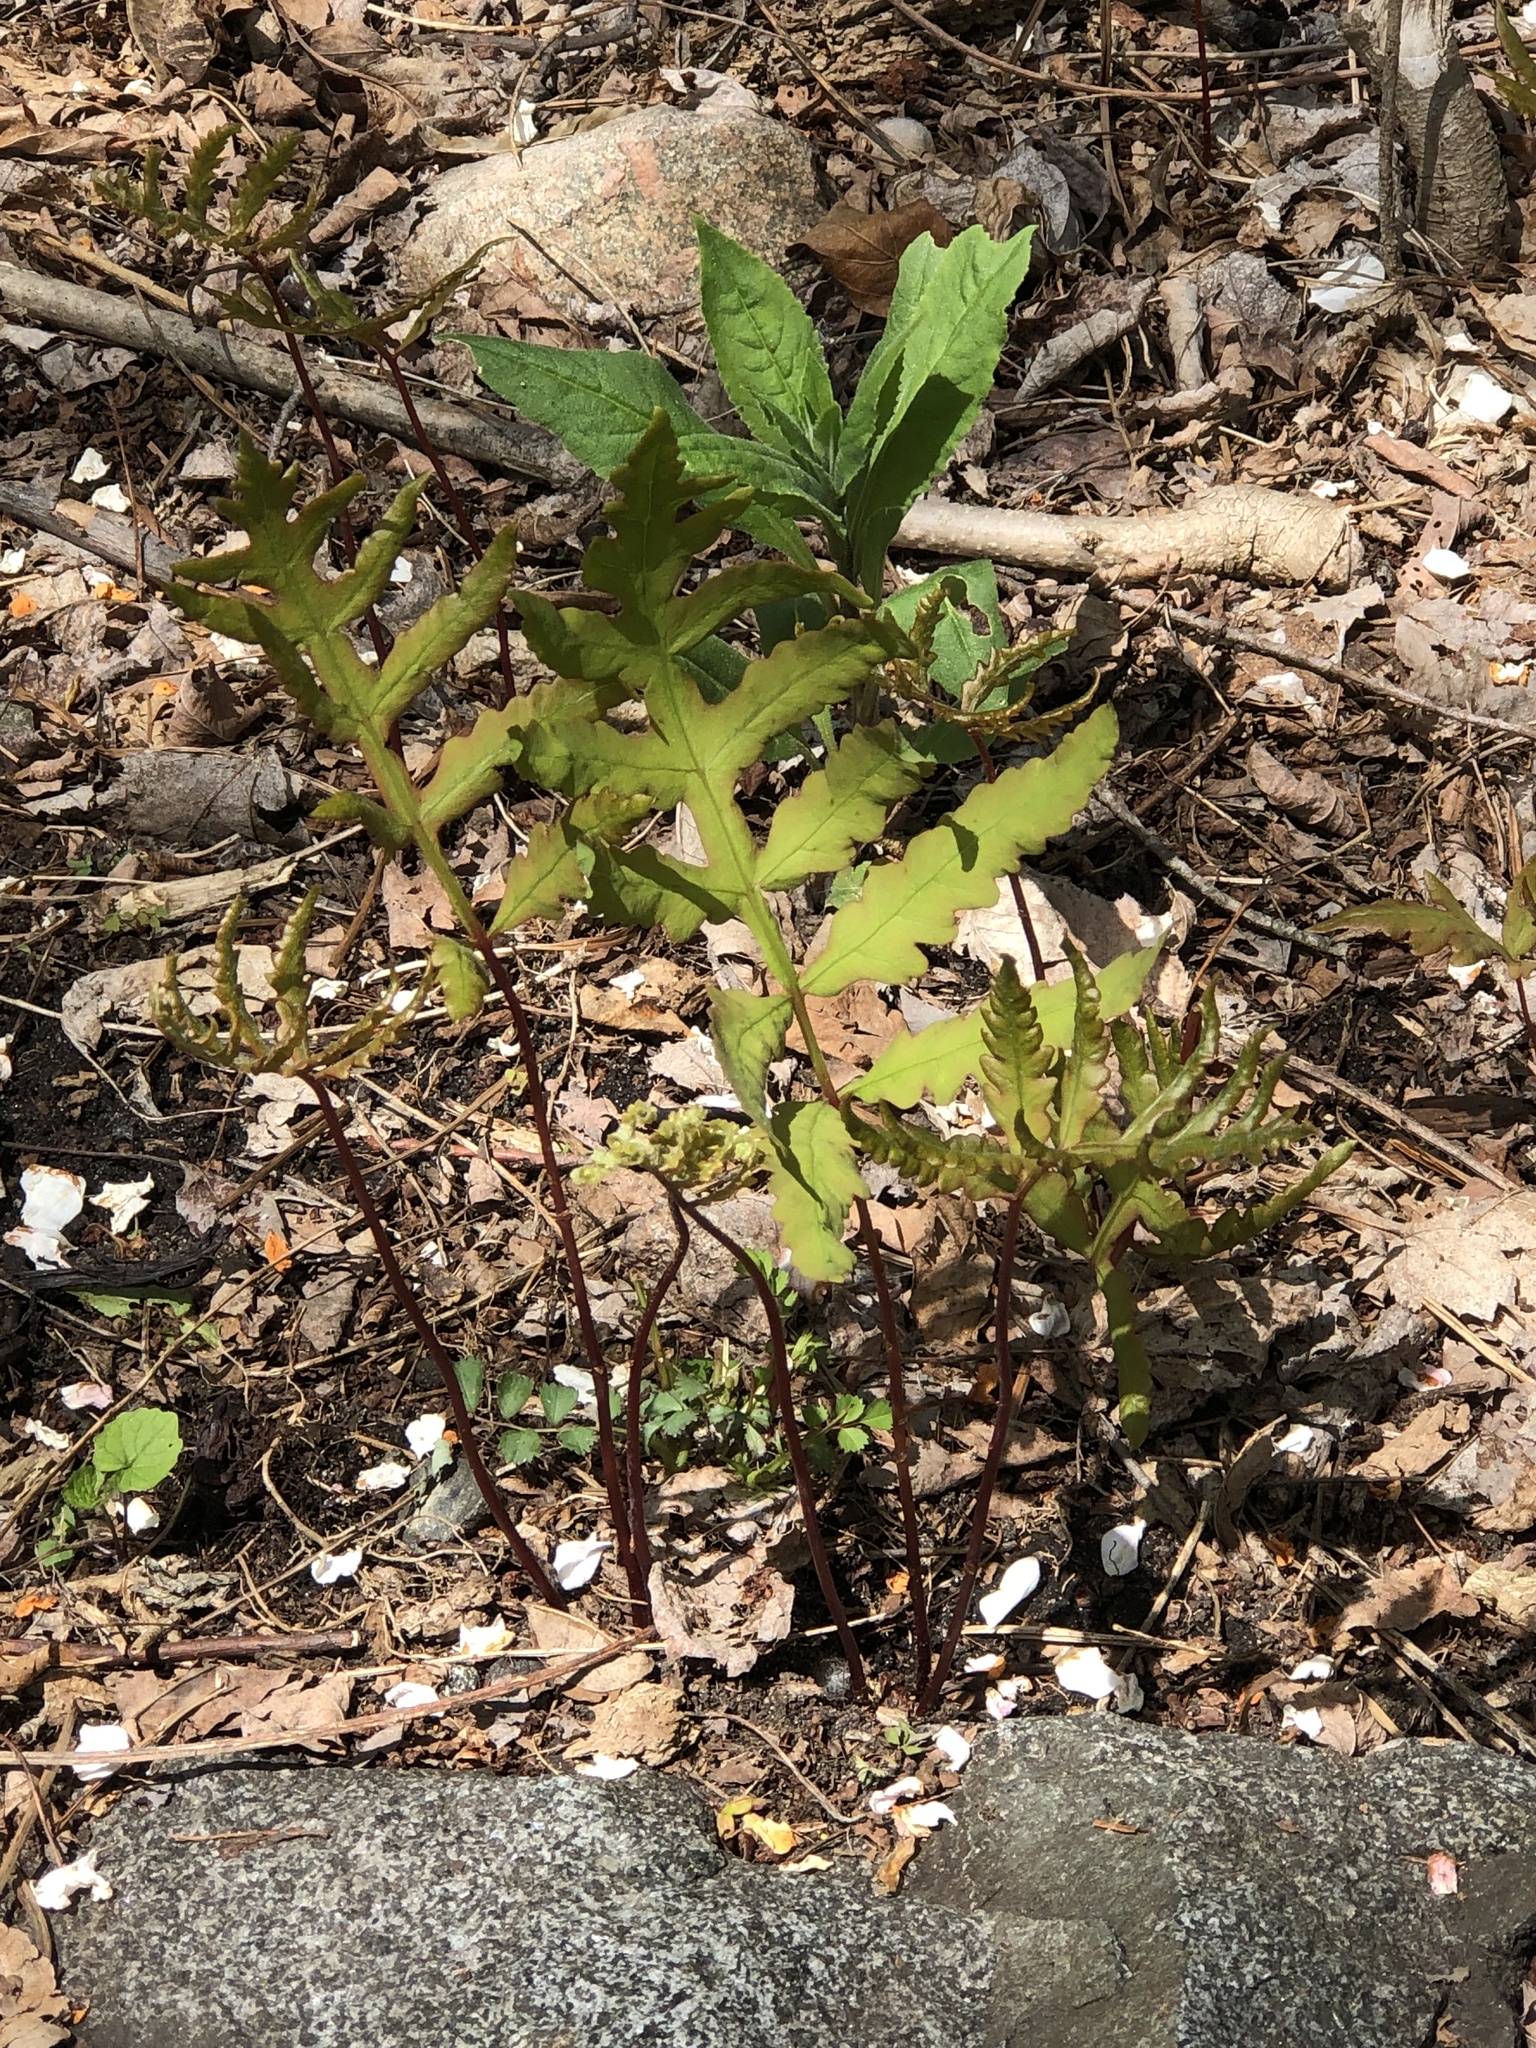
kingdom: Plantae
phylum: Tracheophyta
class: Polypodiopsida
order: Polypodiales
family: Onocleaceae
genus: Onoclea
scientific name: Onoclea sensibilis
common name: Sensitive fern
